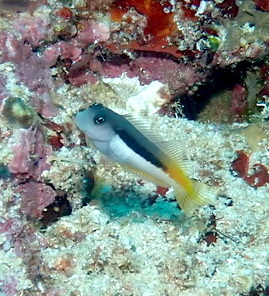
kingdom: Animalia
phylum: Chordata
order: Perciformes
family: Blenniidae
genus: Ecsenius
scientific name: Ecsenius bicolor
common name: Bicolor blenny
